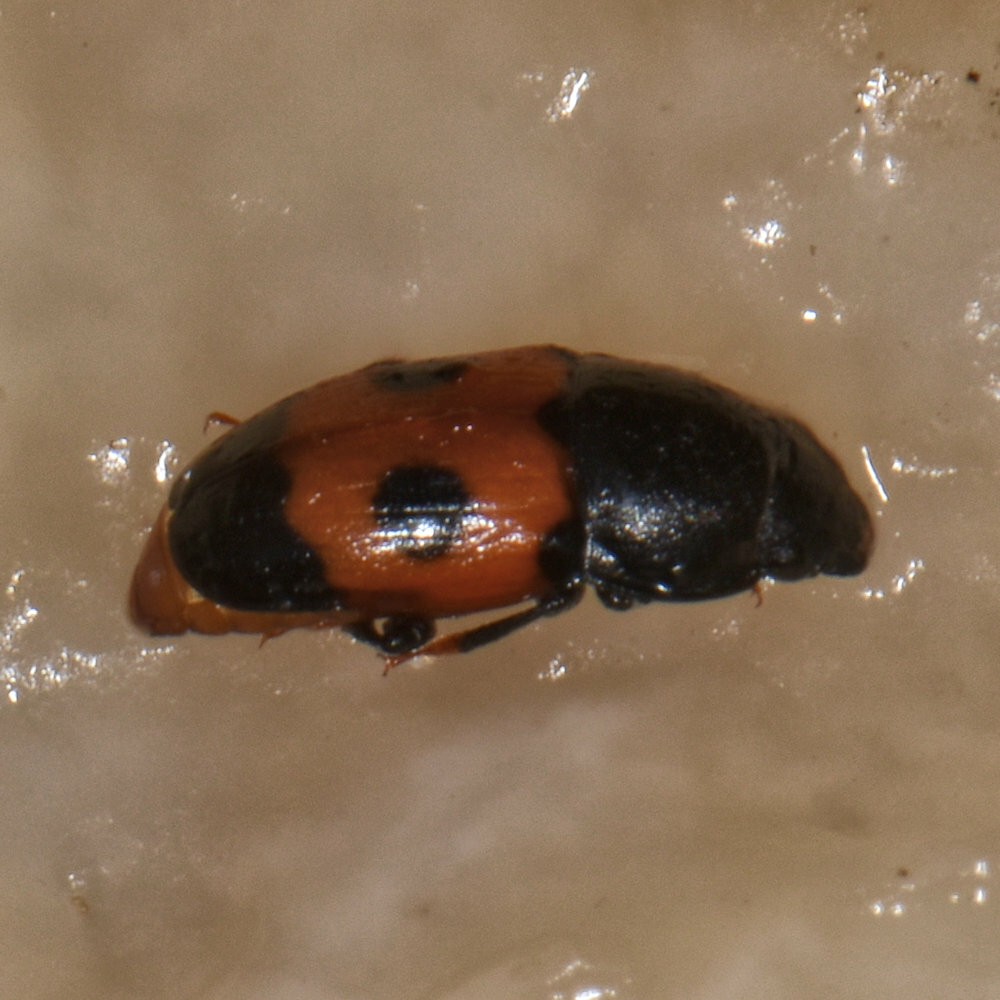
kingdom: Animalia
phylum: Arthropoda
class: Insecta
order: Coleoptera
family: Nitidulidae
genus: Glischrochilus
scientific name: Glischrochilus sanguinolentus
